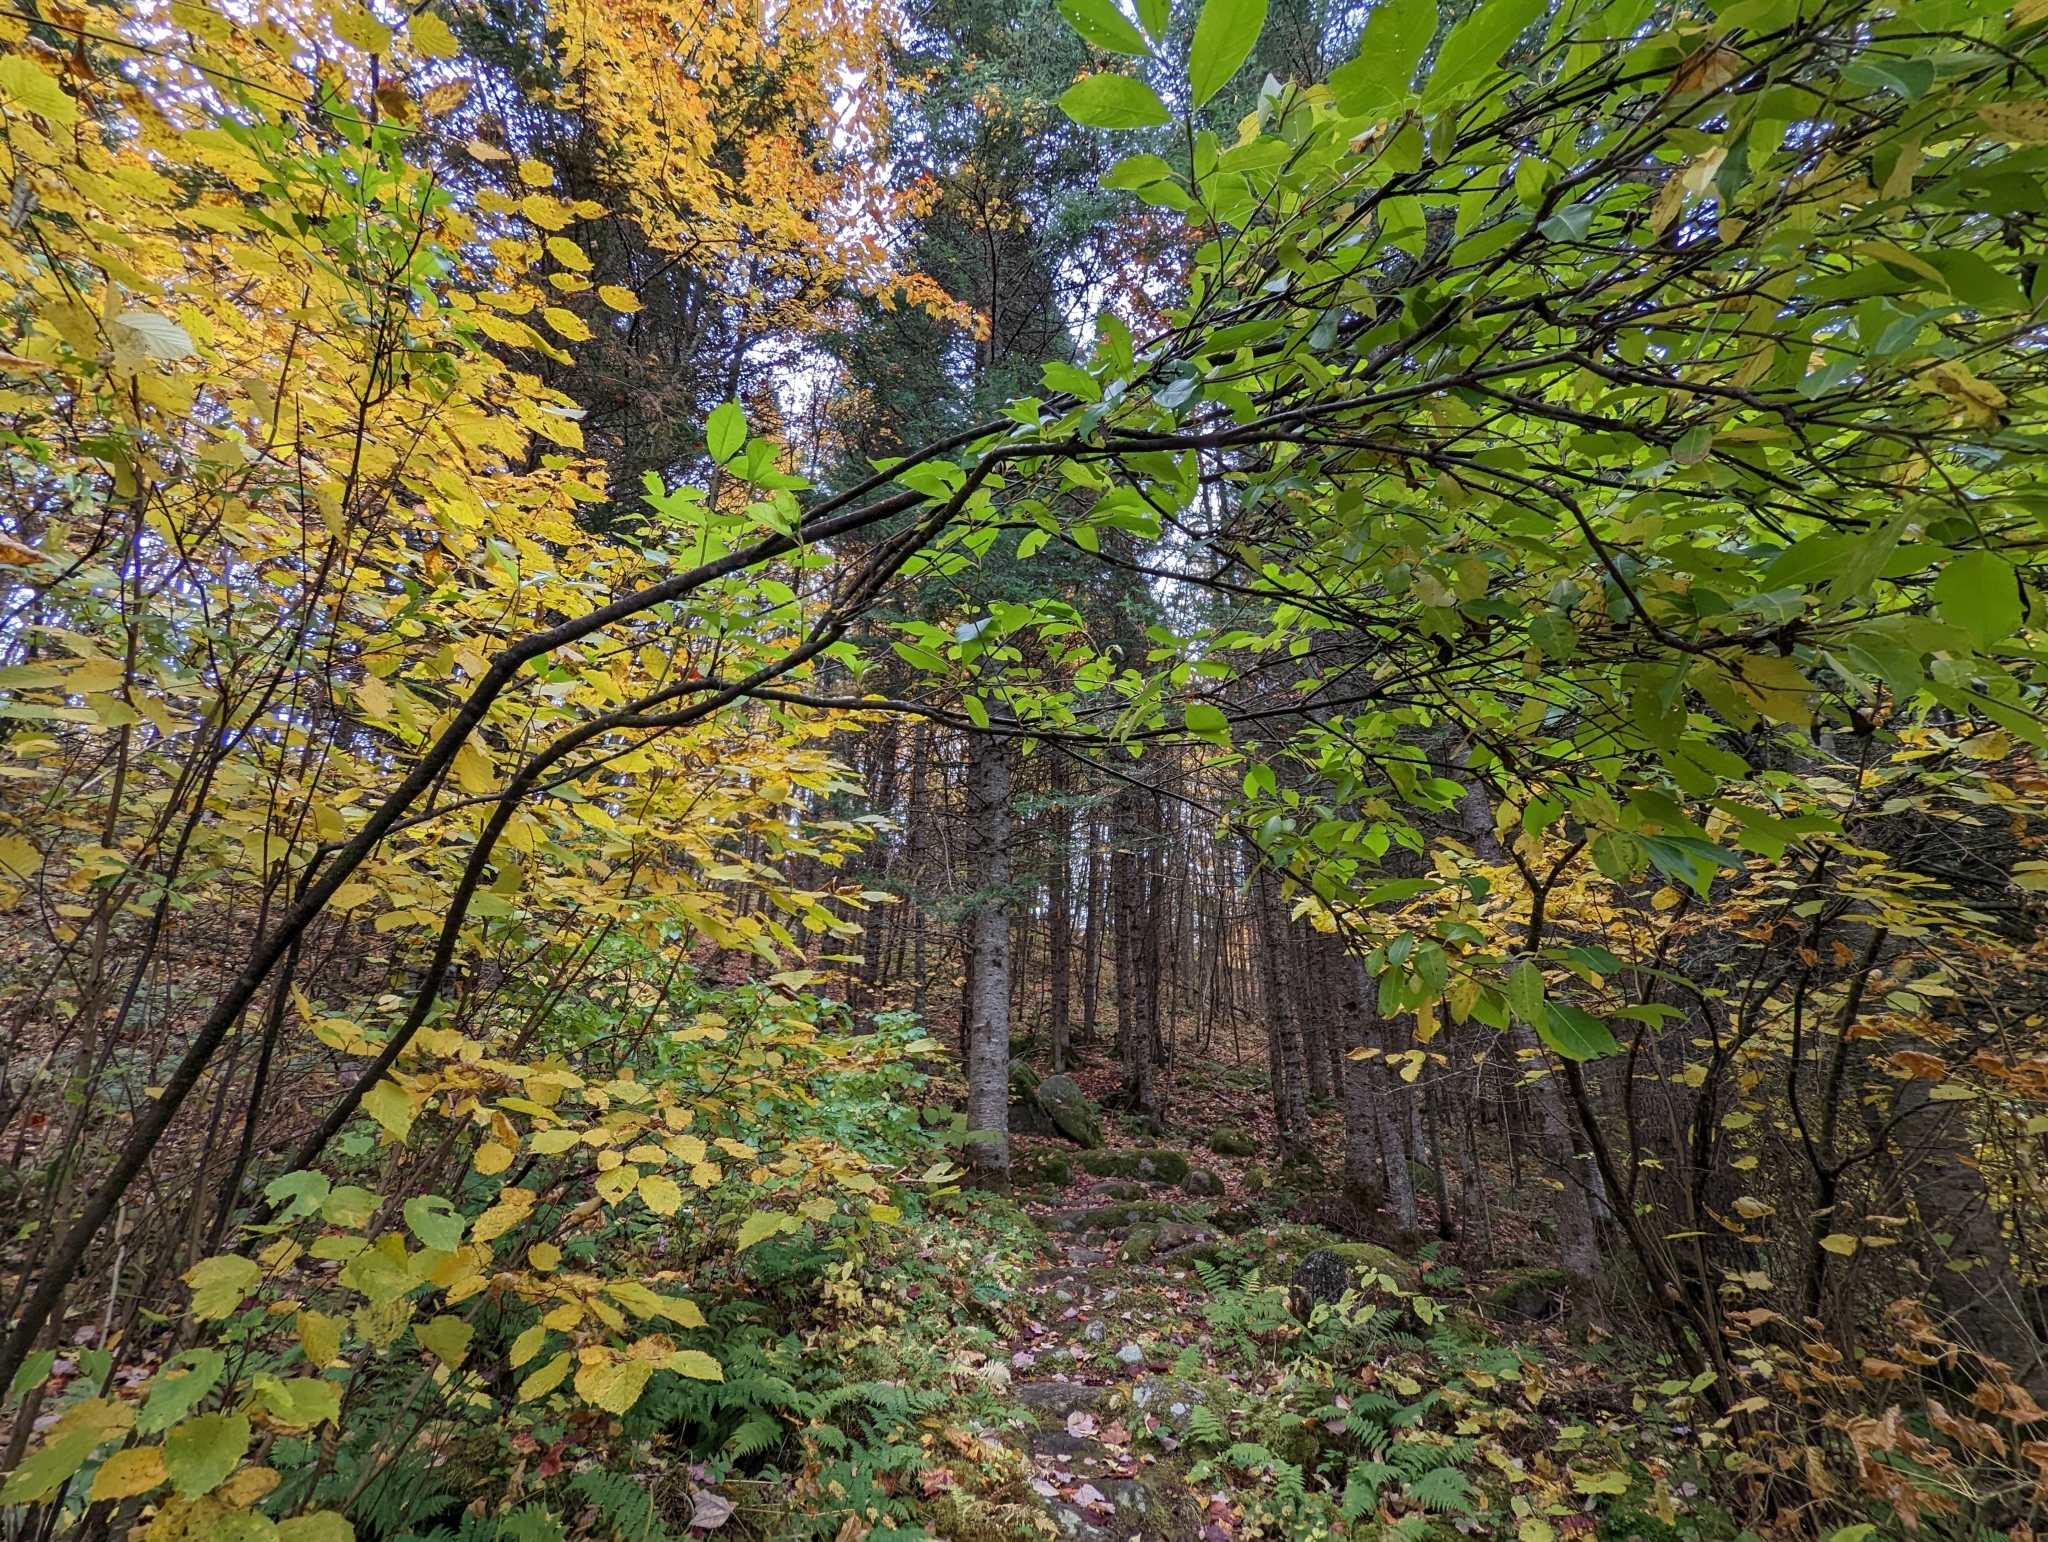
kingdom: Plantae
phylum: Tracheophyta
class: Magnoliopsida
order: Rosales
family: Rosaceae
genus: Prunus
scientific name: Prunus serotina
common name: Black cherry
